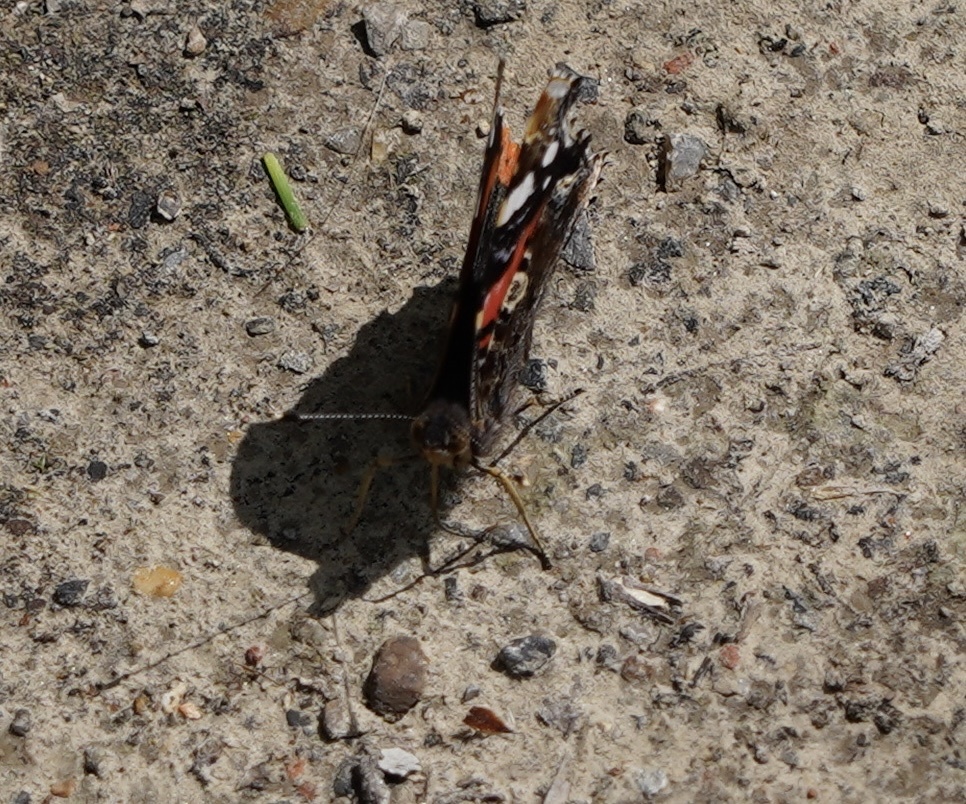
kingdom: Animalia
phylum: Arthropoda
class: Insecta
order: Lepidoptera
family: Nymphalidae
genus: Vanessa
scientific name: Vanessa atalanta
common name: Red admiral
